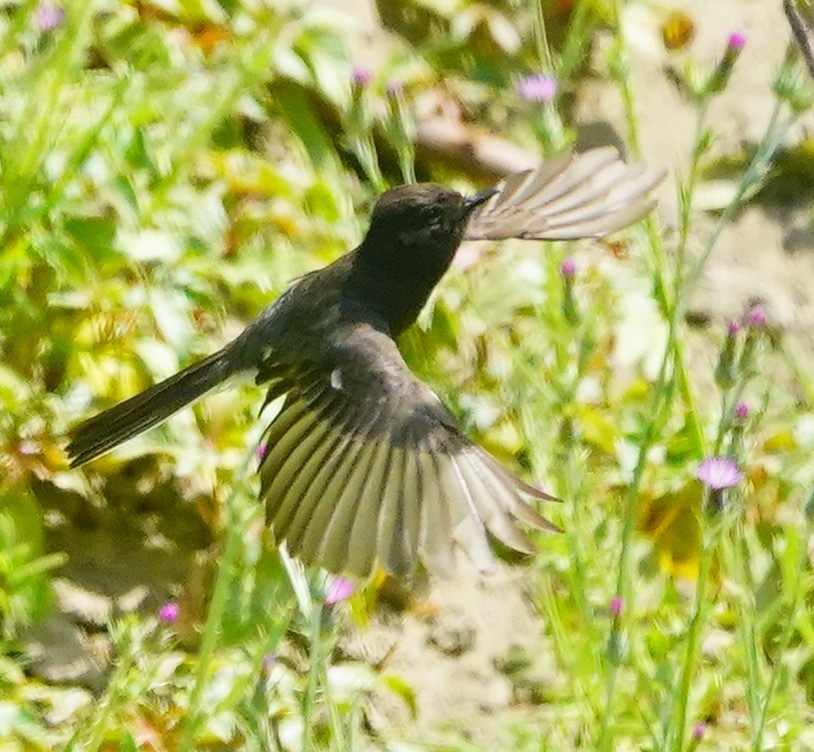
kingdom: Animalia
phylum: Chordata
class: Aves
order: Passeriformes
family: Tyrannidae
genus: Sayornis
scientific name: Sayornis nigricans
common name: Black phoebe
